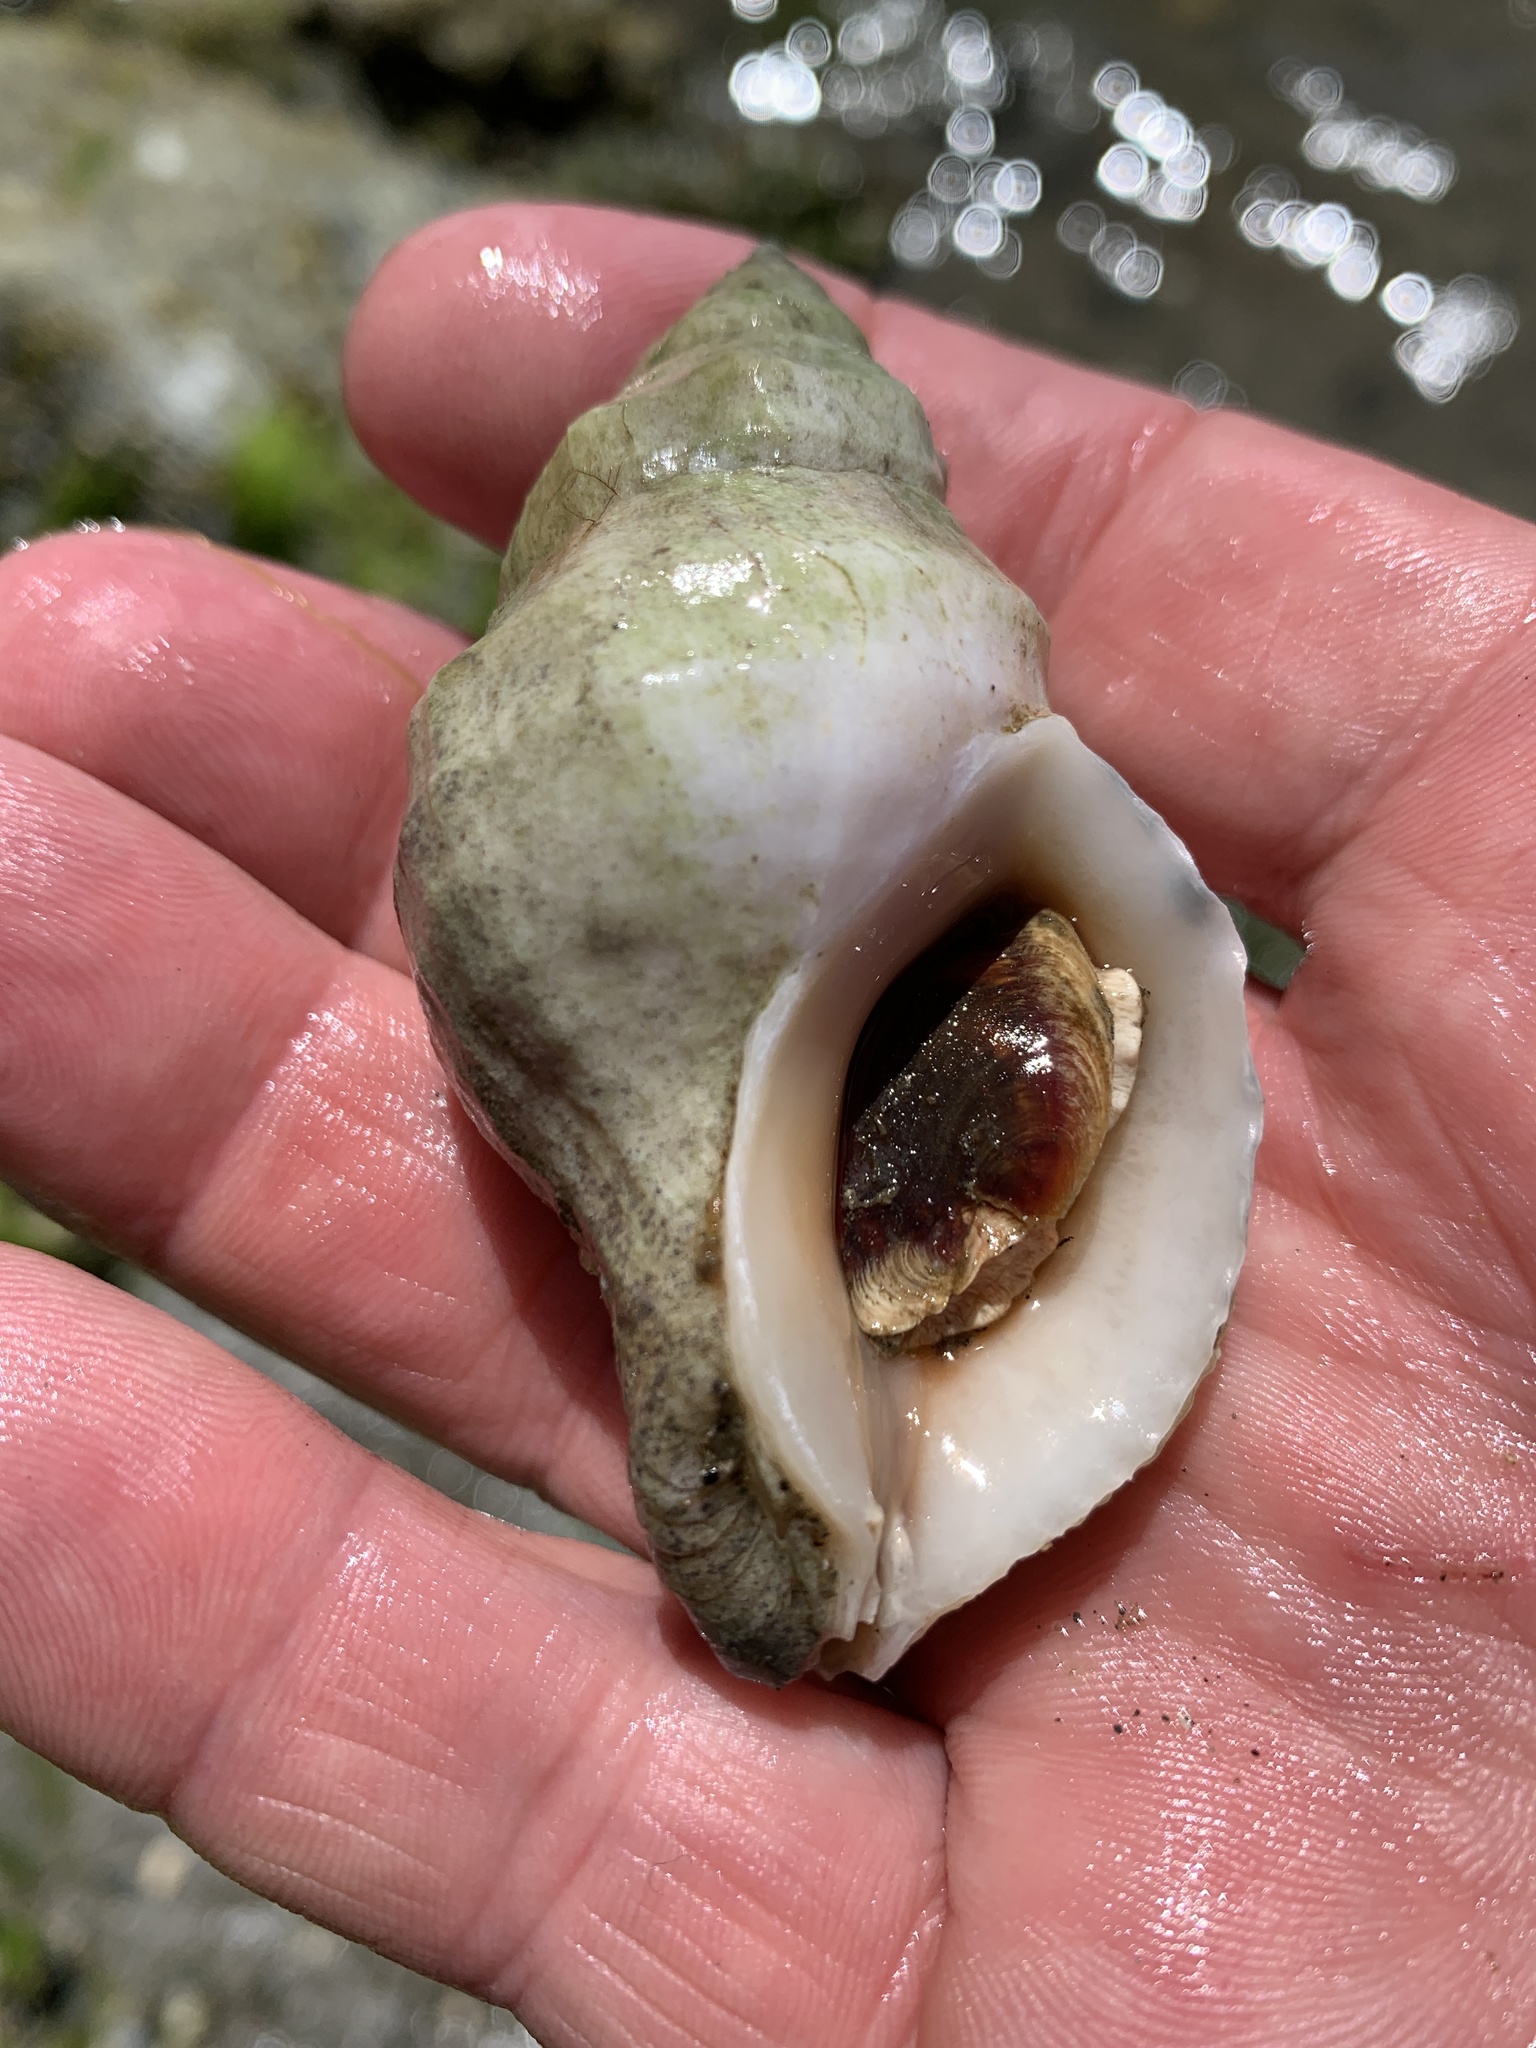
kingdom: Animalia
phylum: Mollusca
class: Gastropoda
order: Neogastropoda
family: Muricidae
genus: Nucella
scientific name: Nucella lamellosa
